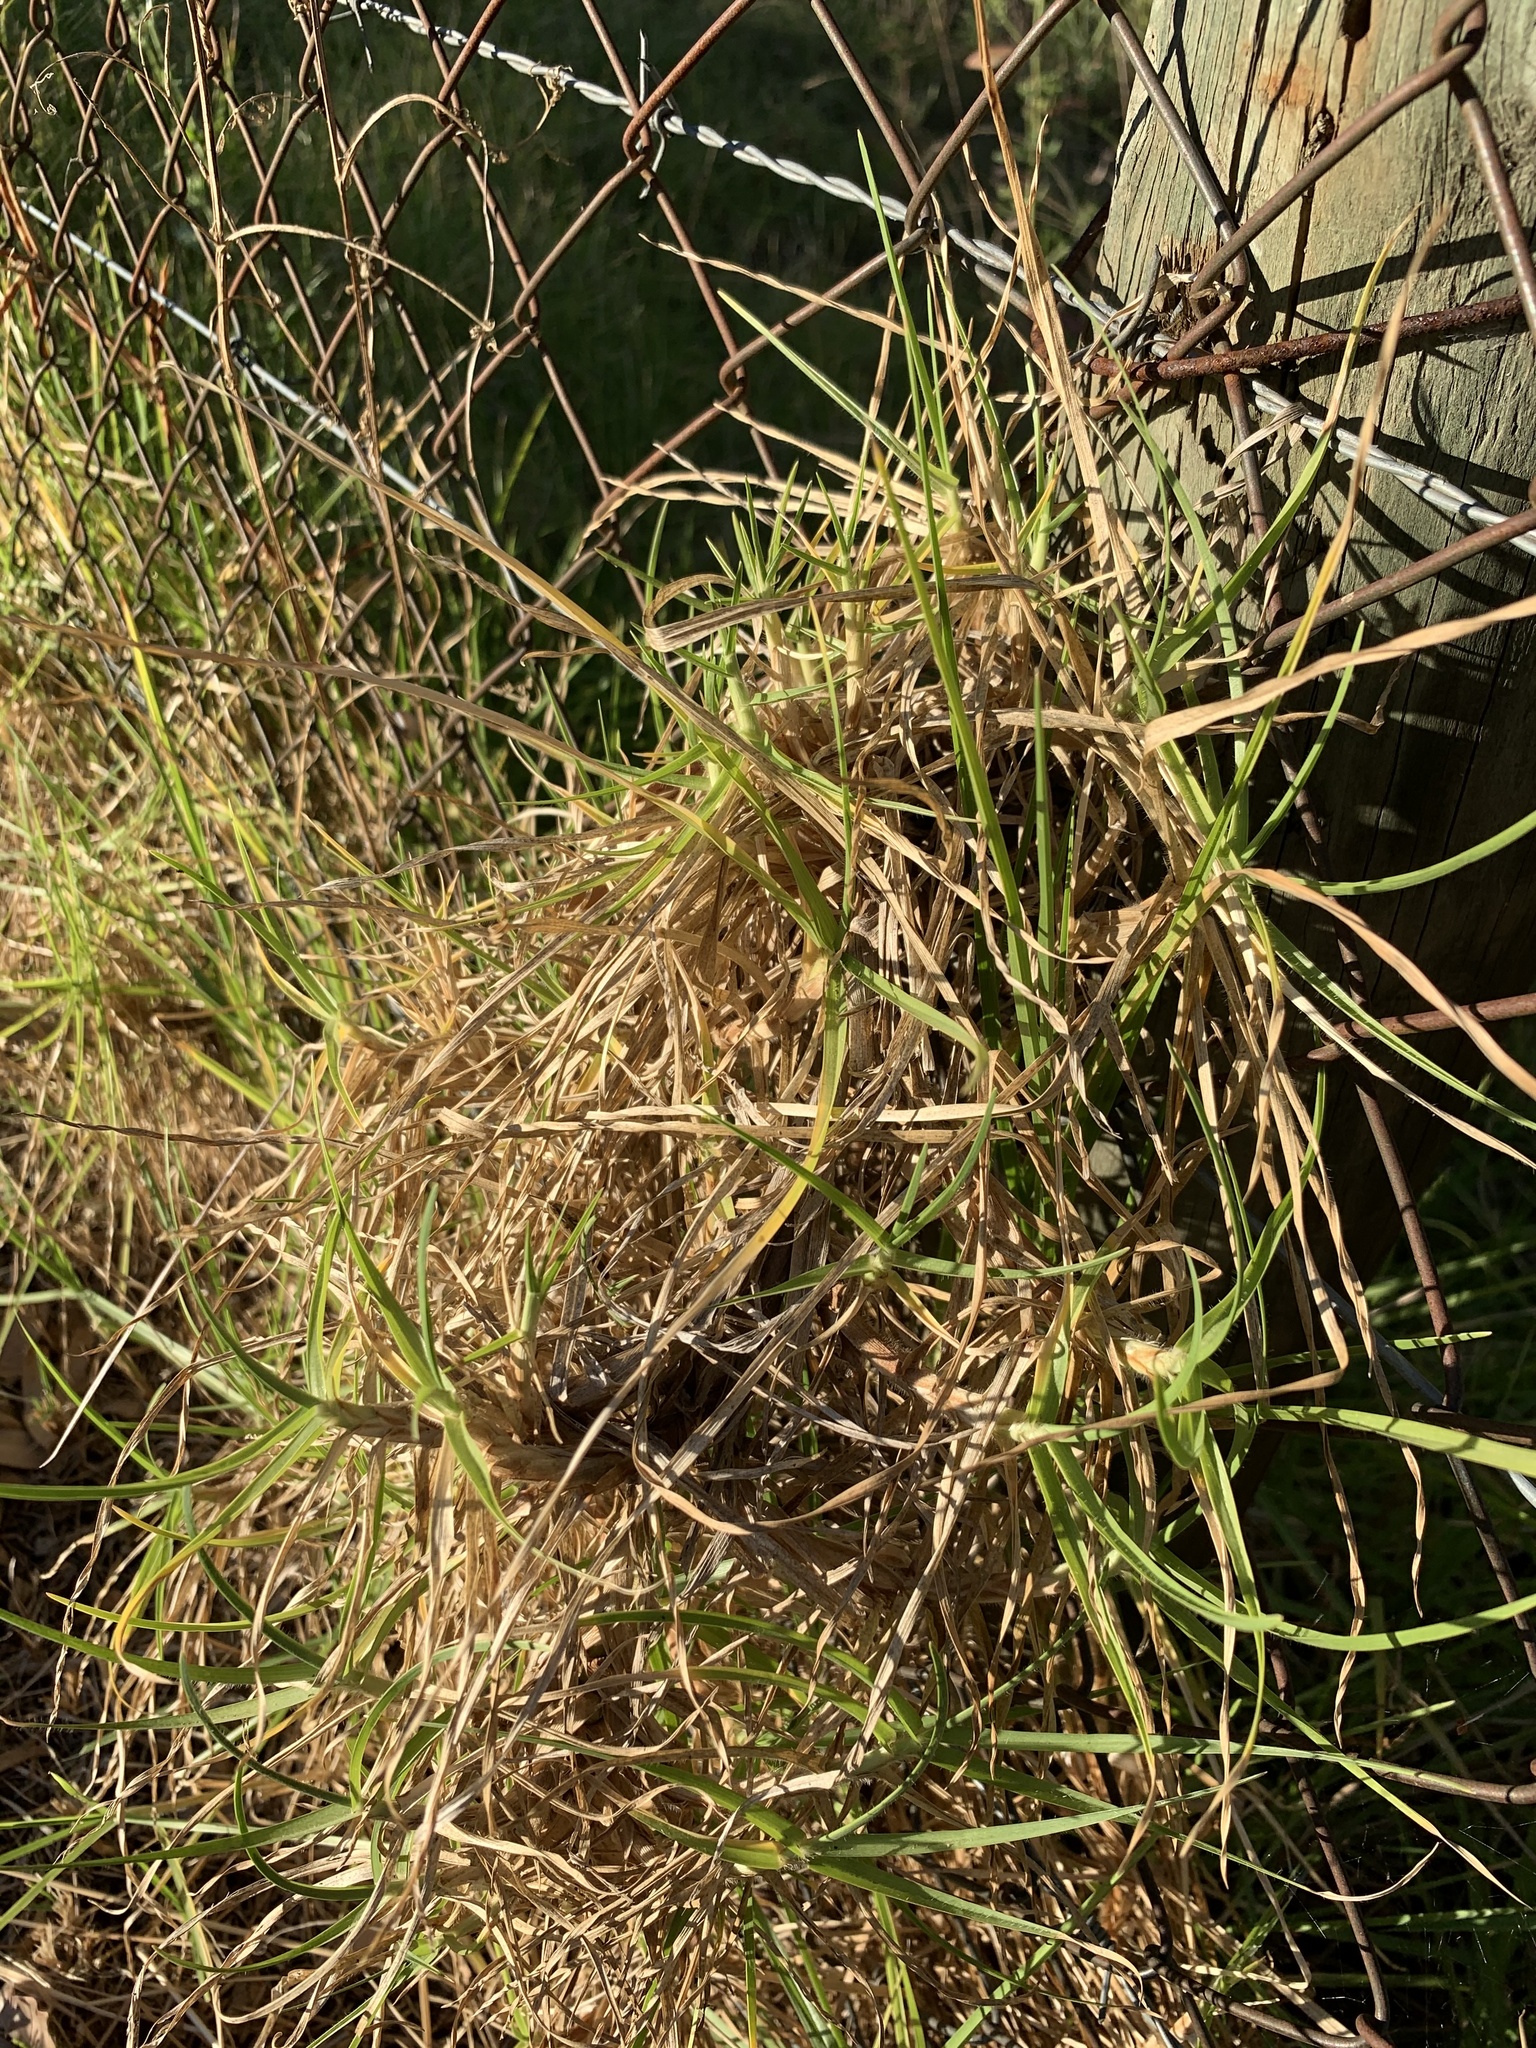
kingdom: Plantae
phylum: Tracheophyta
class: Liliopsida
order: Poales
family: Poaceae
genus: Cenchrus
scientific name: Cenchrus clandestinus
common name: Kikuyugrass
